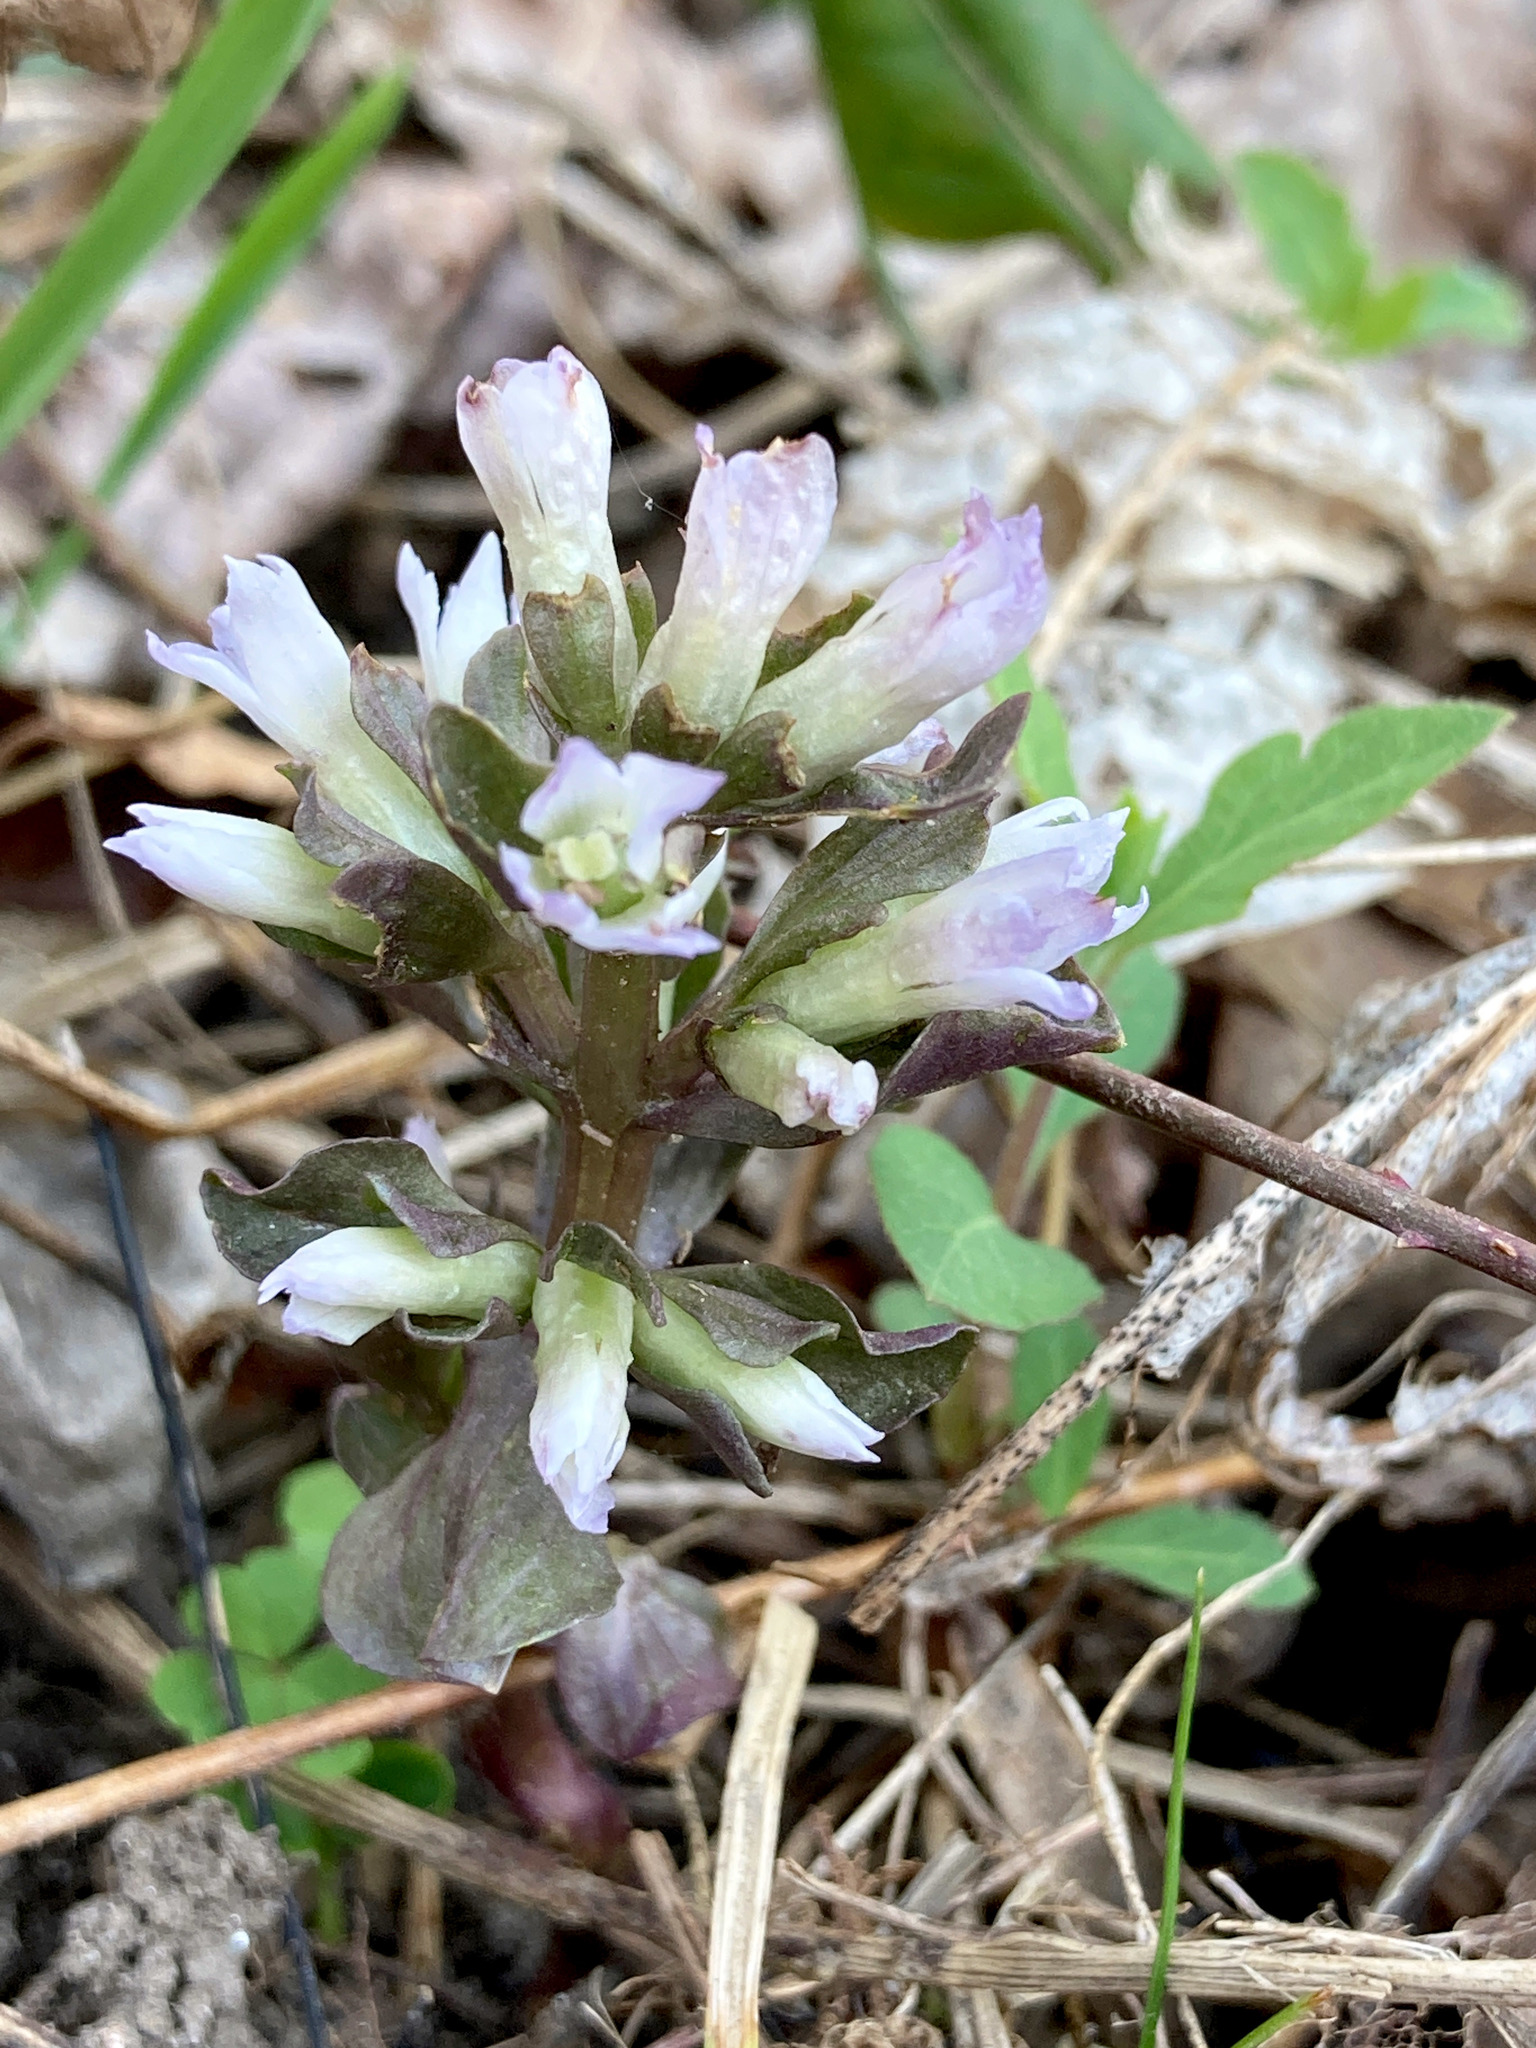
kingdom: Plantae
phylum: Tracheophyta
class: Magnoliopsida
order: Gentianales
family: Gentianaceae
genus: Obolaria
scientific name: Obolaria virginica
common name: Pennywort
